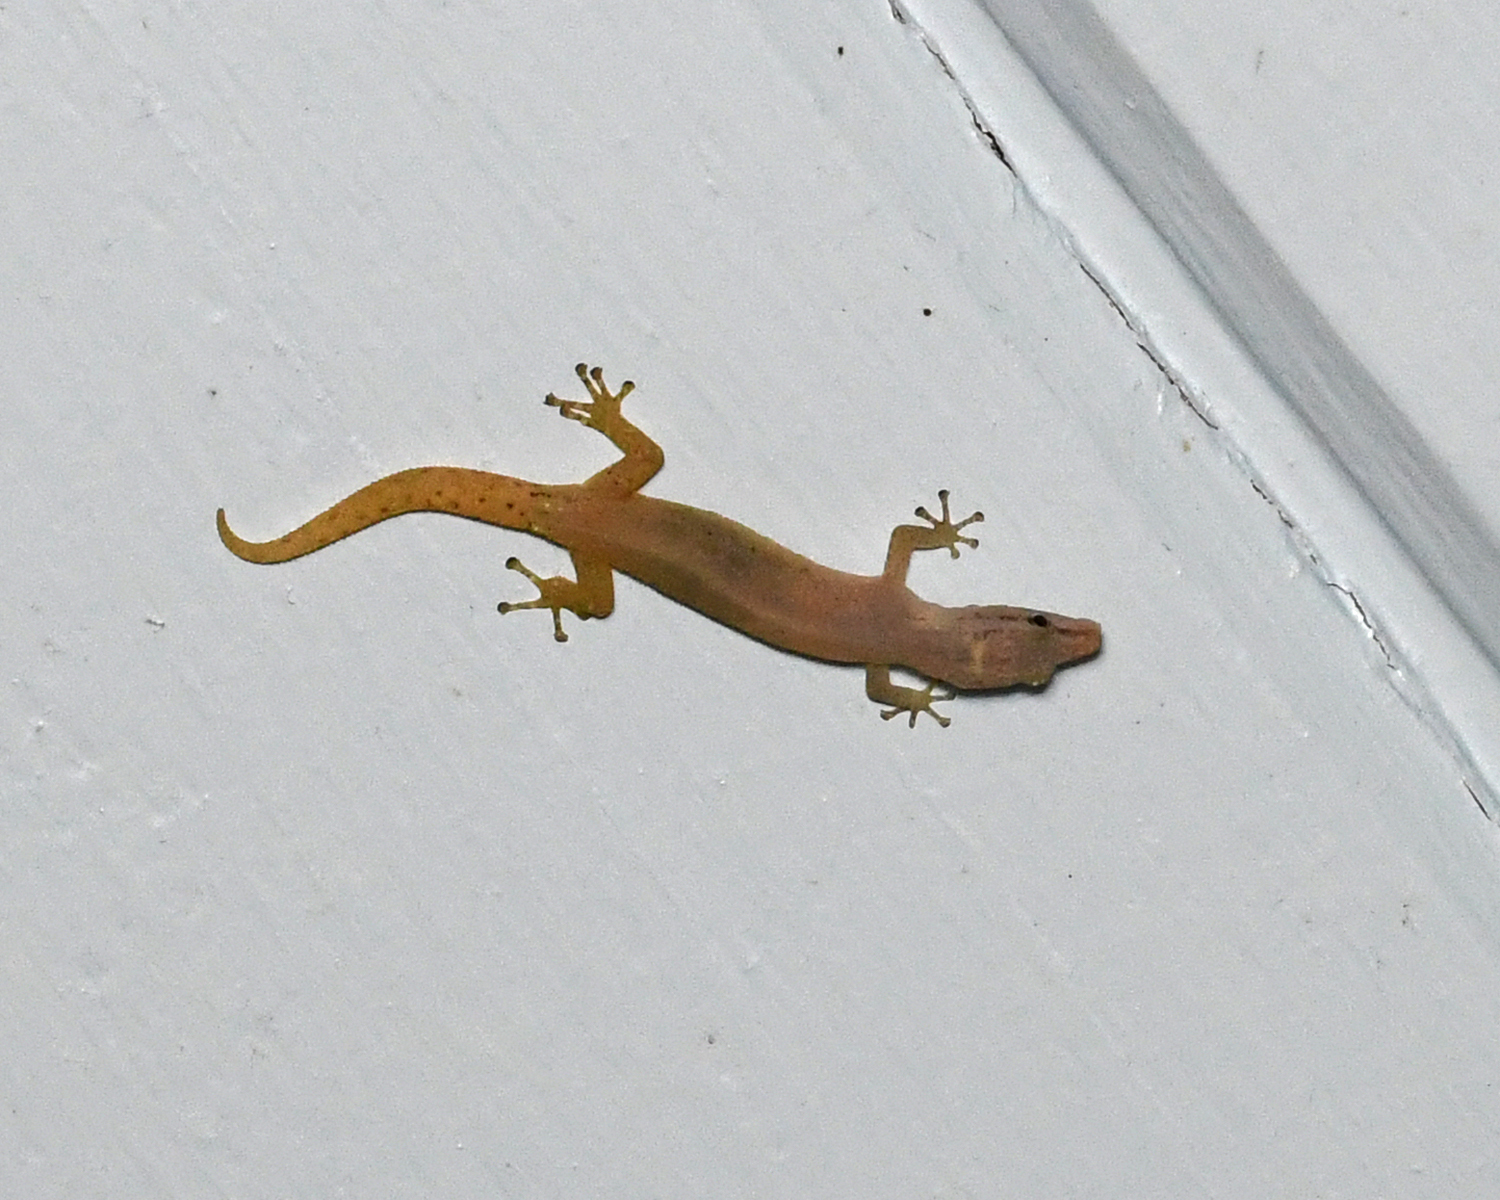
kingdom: Animalia
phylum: Chordata
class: Squamata
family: Sphaerodactylidae
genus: Sphaerodactylus
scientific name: Sphaerodactylus molei
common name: Tobago least gecko
